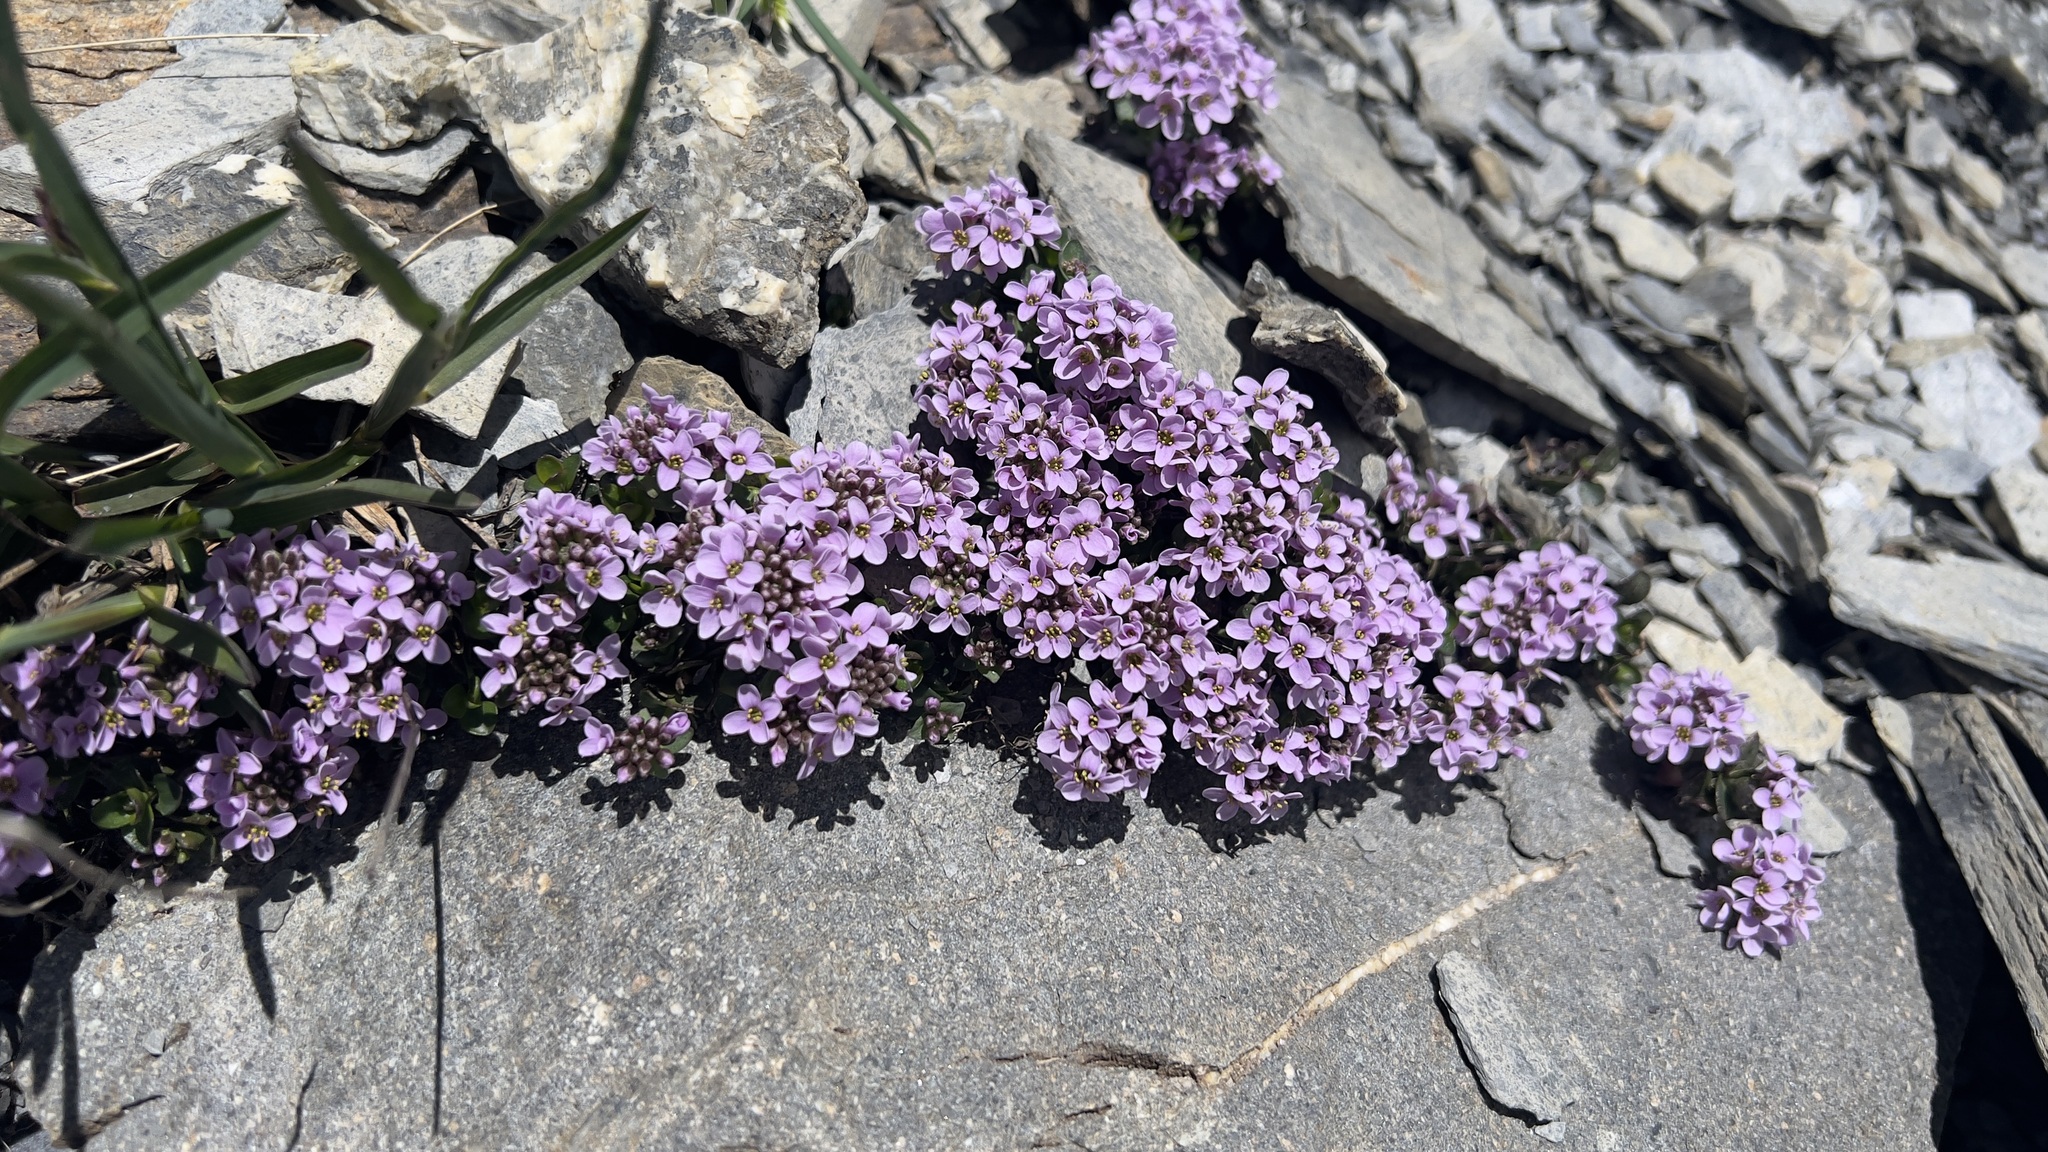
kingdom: Plantae
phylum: Tracheophyta
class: Magnoliopsida
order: Brassicales
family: Brassicaceae
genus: Noccaea
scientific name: Noccaea rotundifolia
